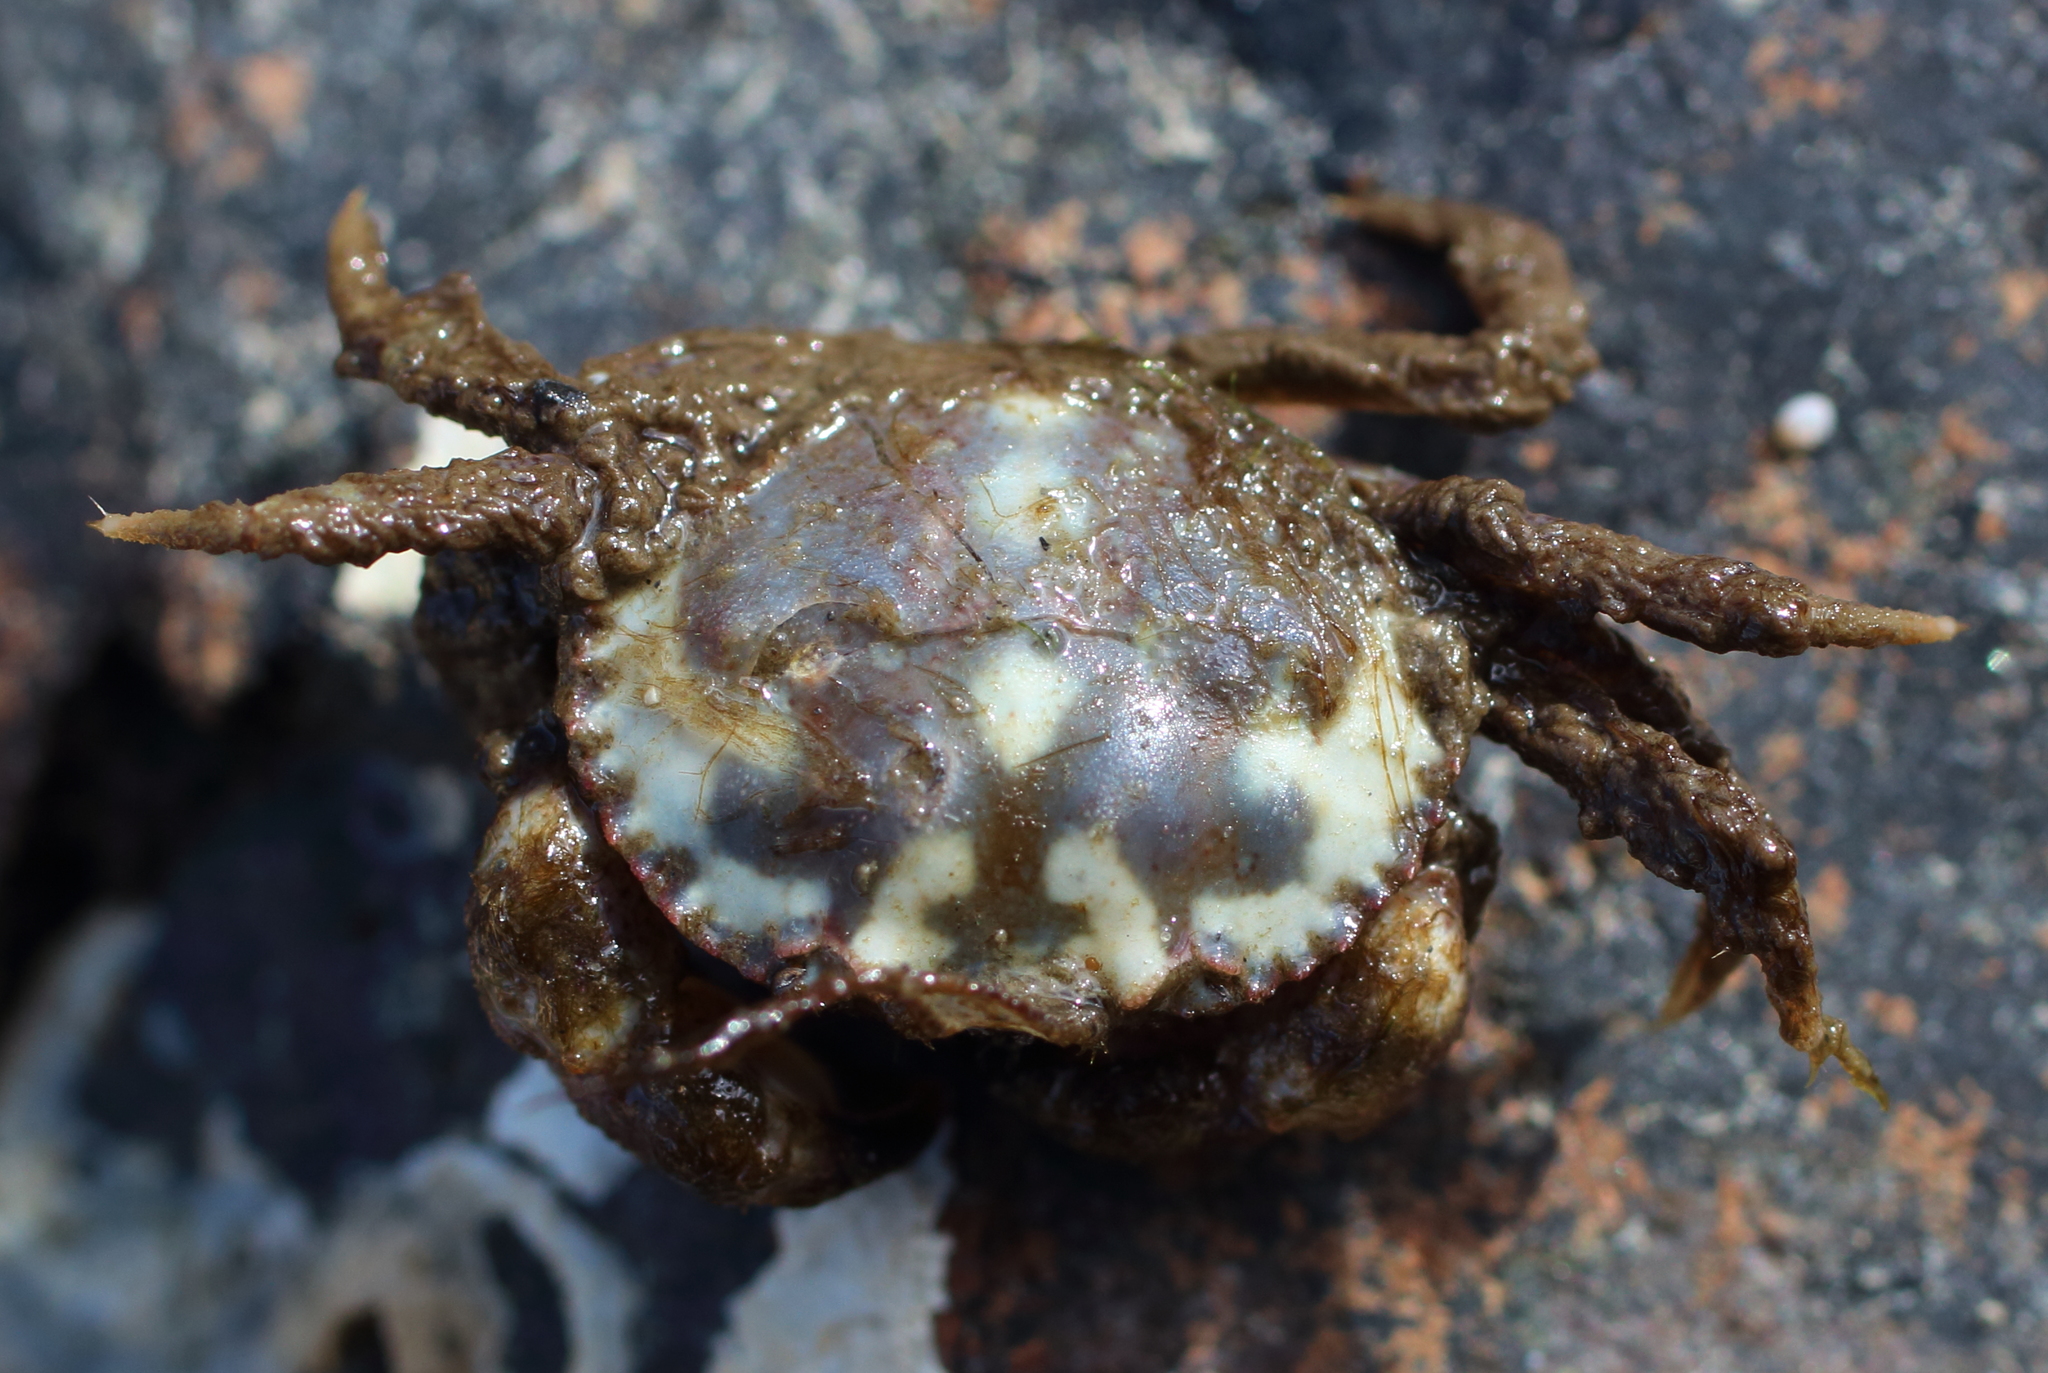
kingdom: Animalia
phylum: Arthropoda
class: Malacostraca
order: Decapoda
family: Cancridae
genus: Glebocarcinus
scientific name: Glebocarcinus oregonensis
